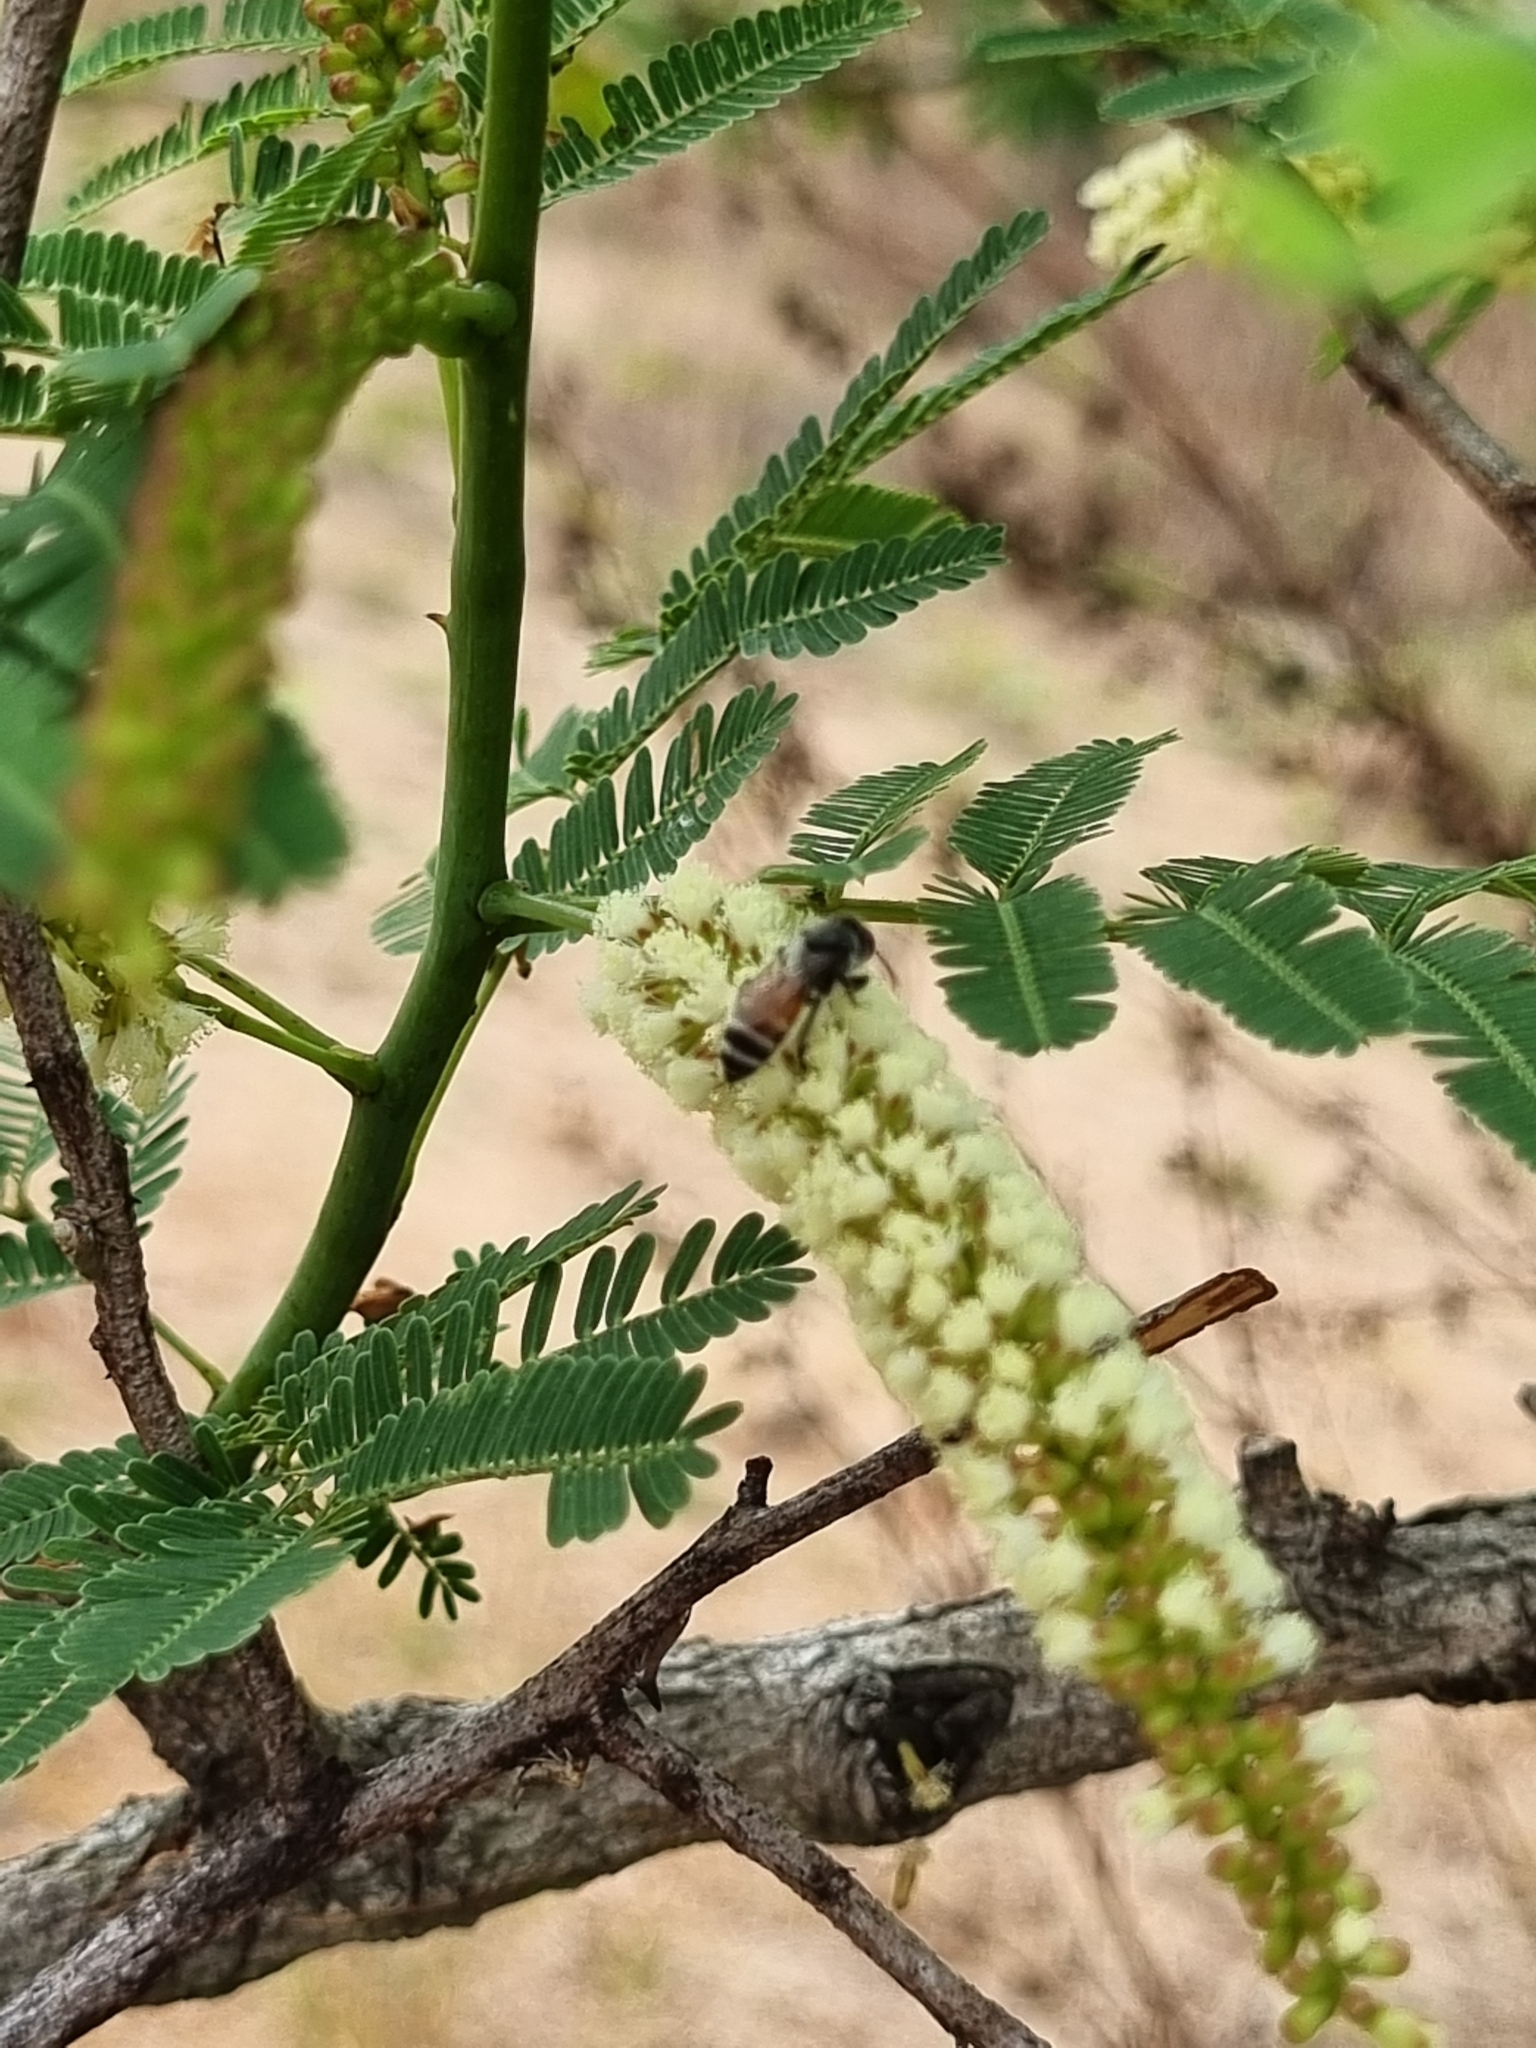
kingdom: Animalia
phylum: Arthropoda
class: Insecta
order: Hymenoptera
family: Apidae
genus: Apis
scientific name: Apis florea
